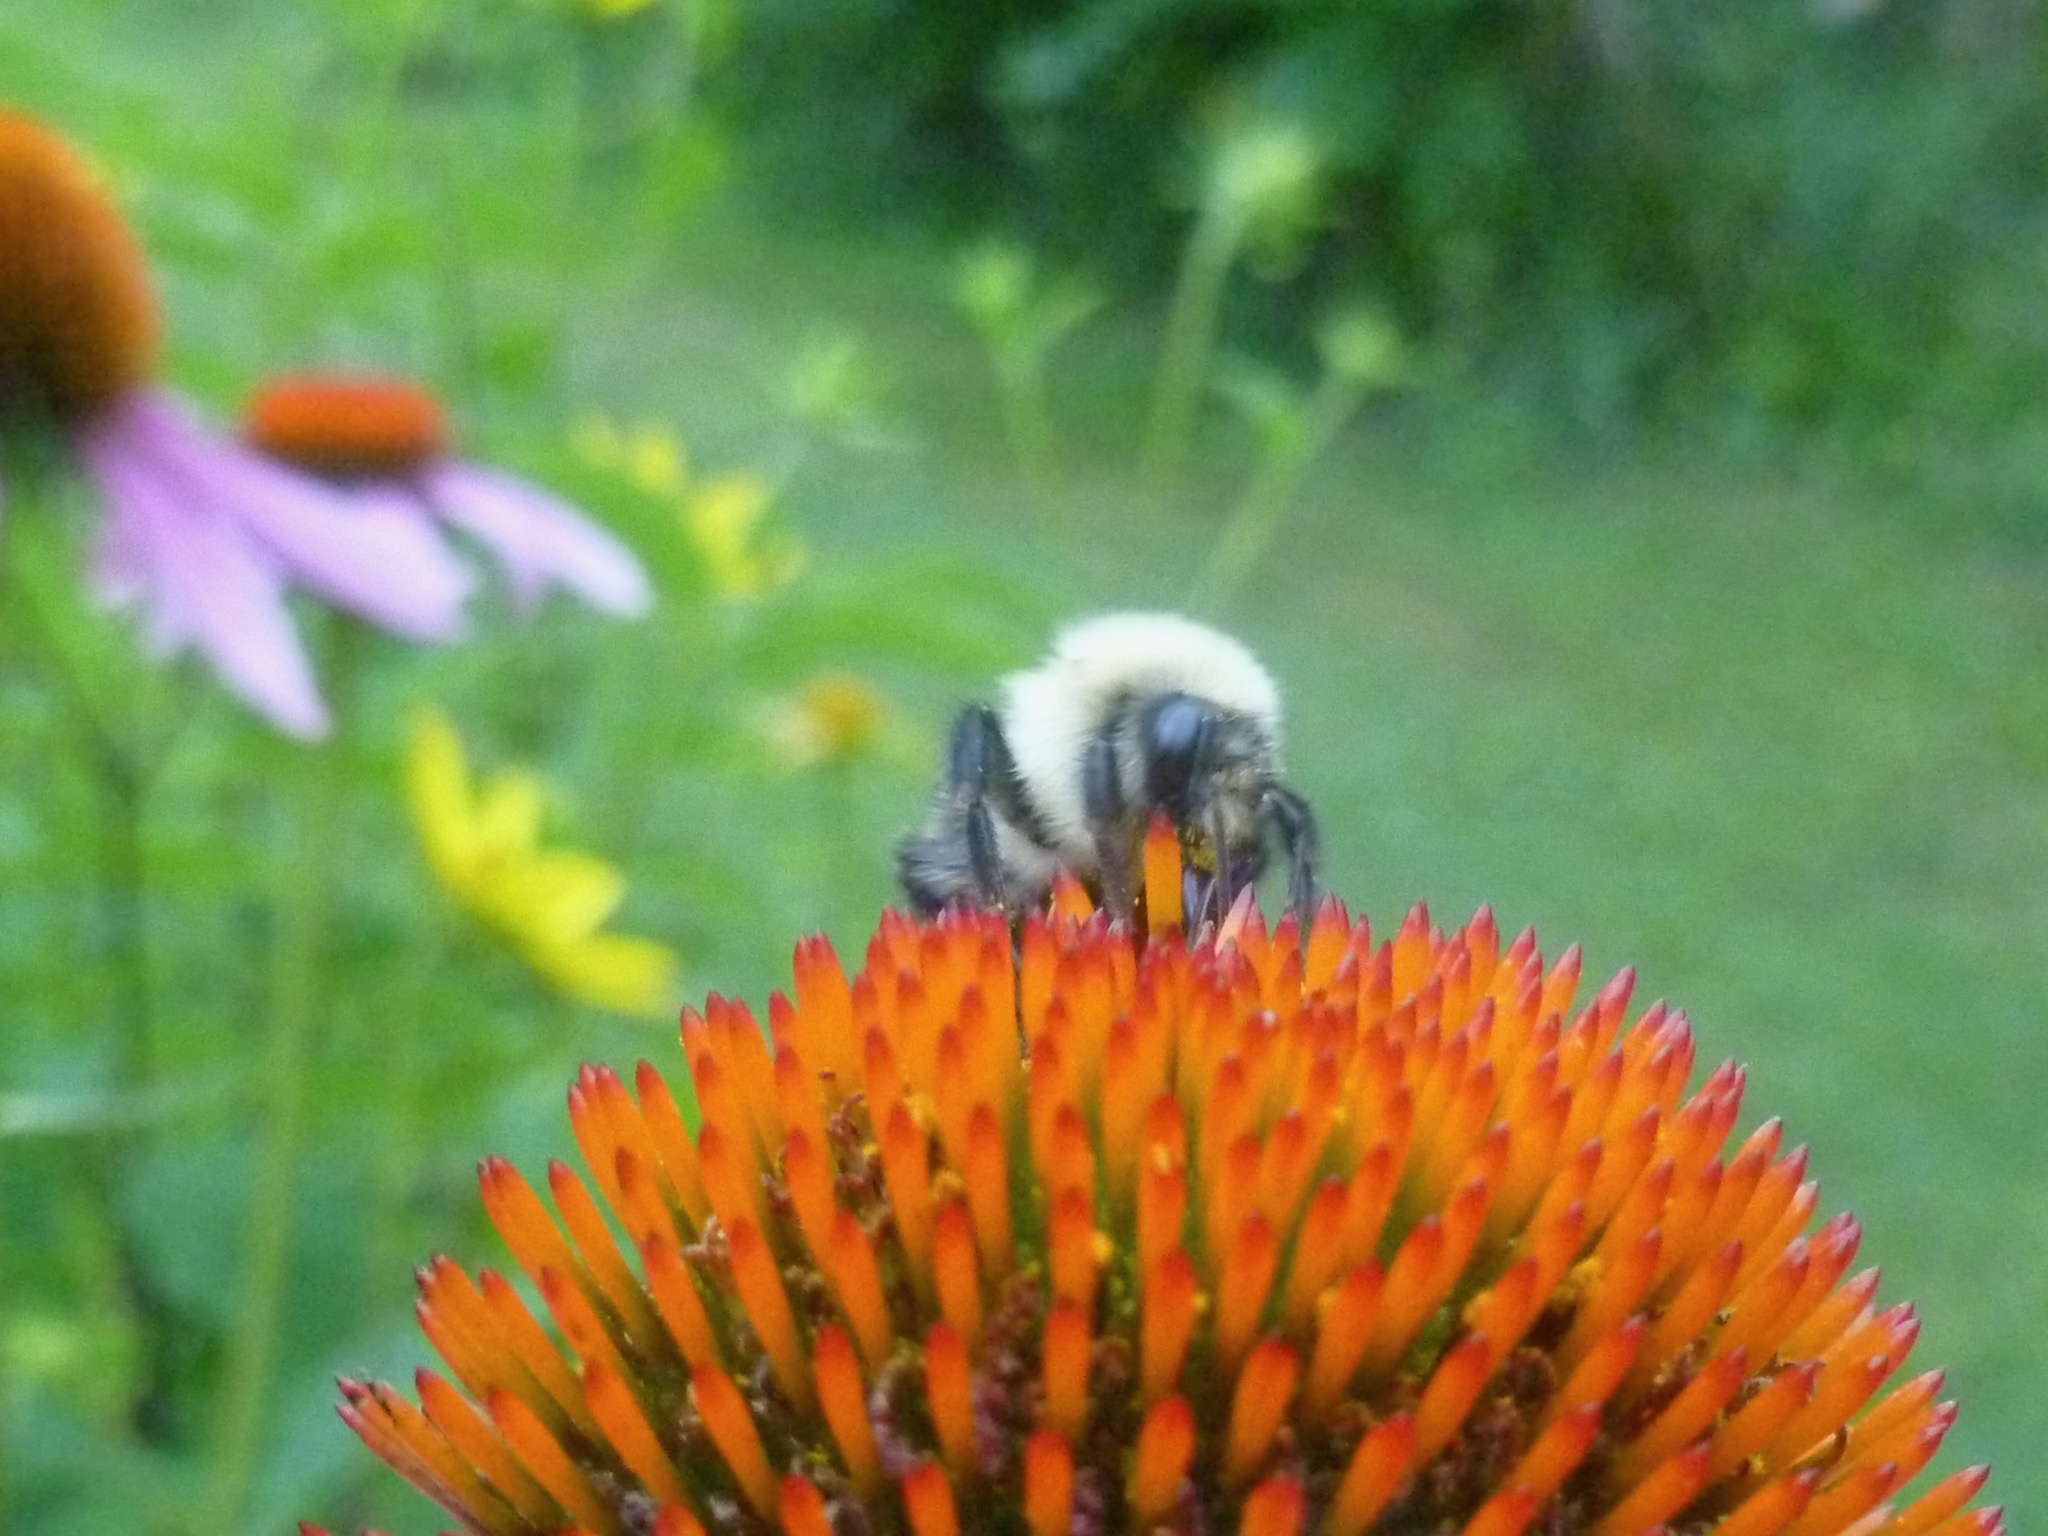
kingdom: Animalia
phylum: Arthropoda
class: Insecta
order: Hymenoptera
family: Apidae
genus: Bombus
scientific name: Bombus bimaculatus
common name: Two-spotted bumble bee
